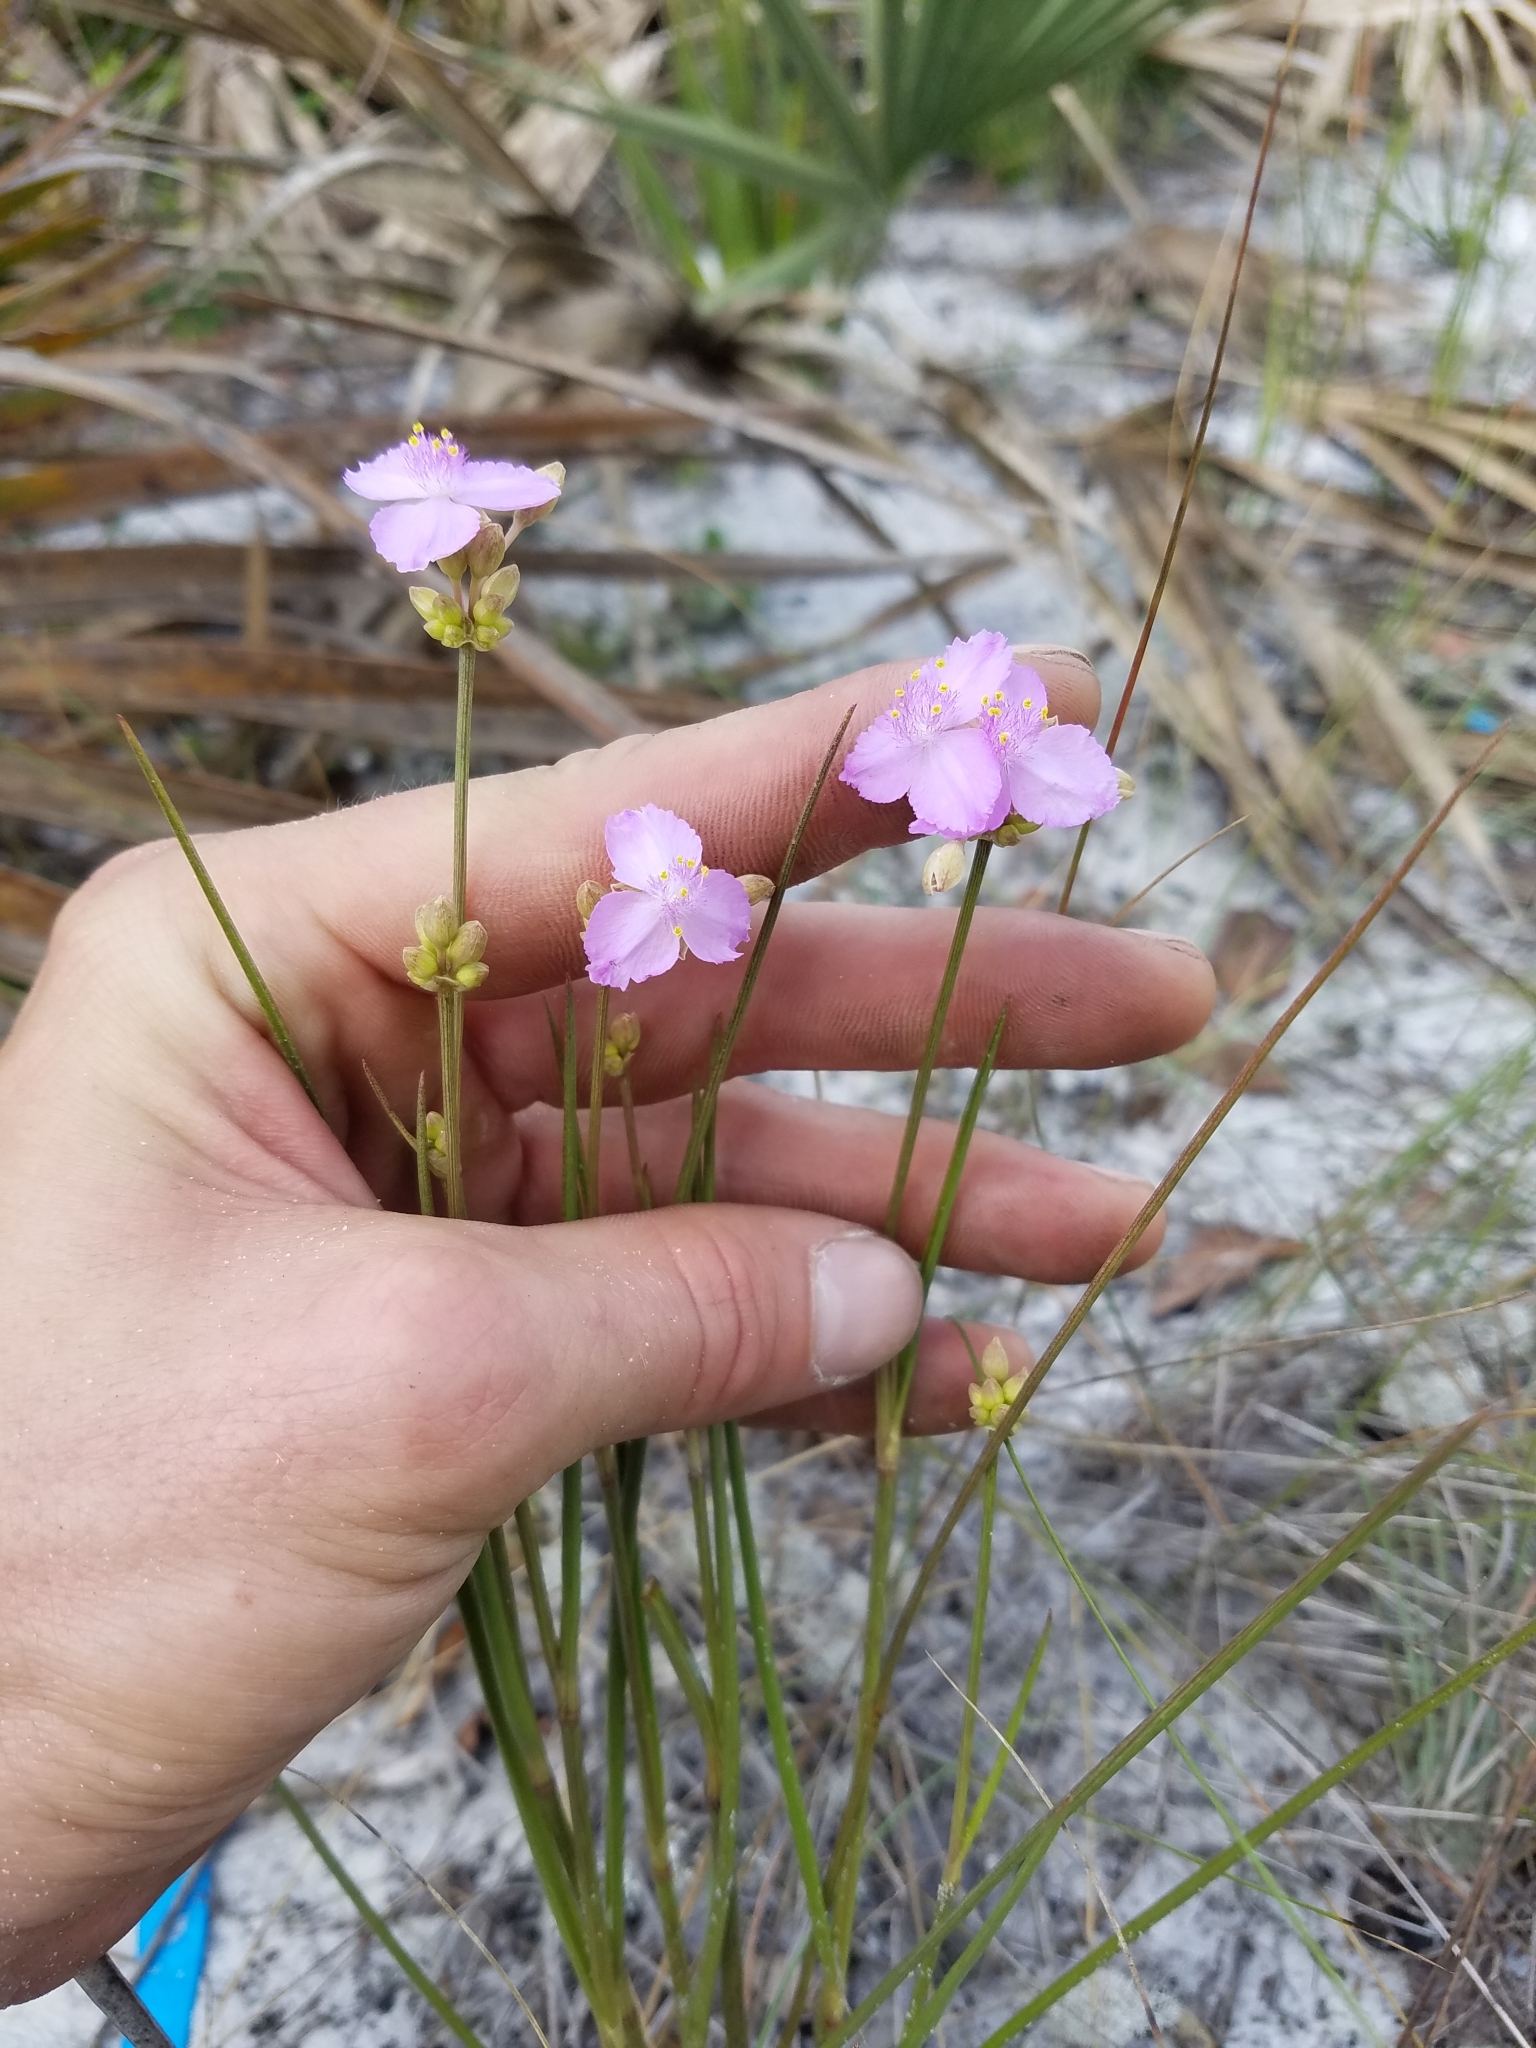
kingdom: Plantae
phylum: Tracheophyta
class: Liliopsida
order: Commelinales
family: Commelinaceae
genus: Callisia
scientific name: Callisia ornata
